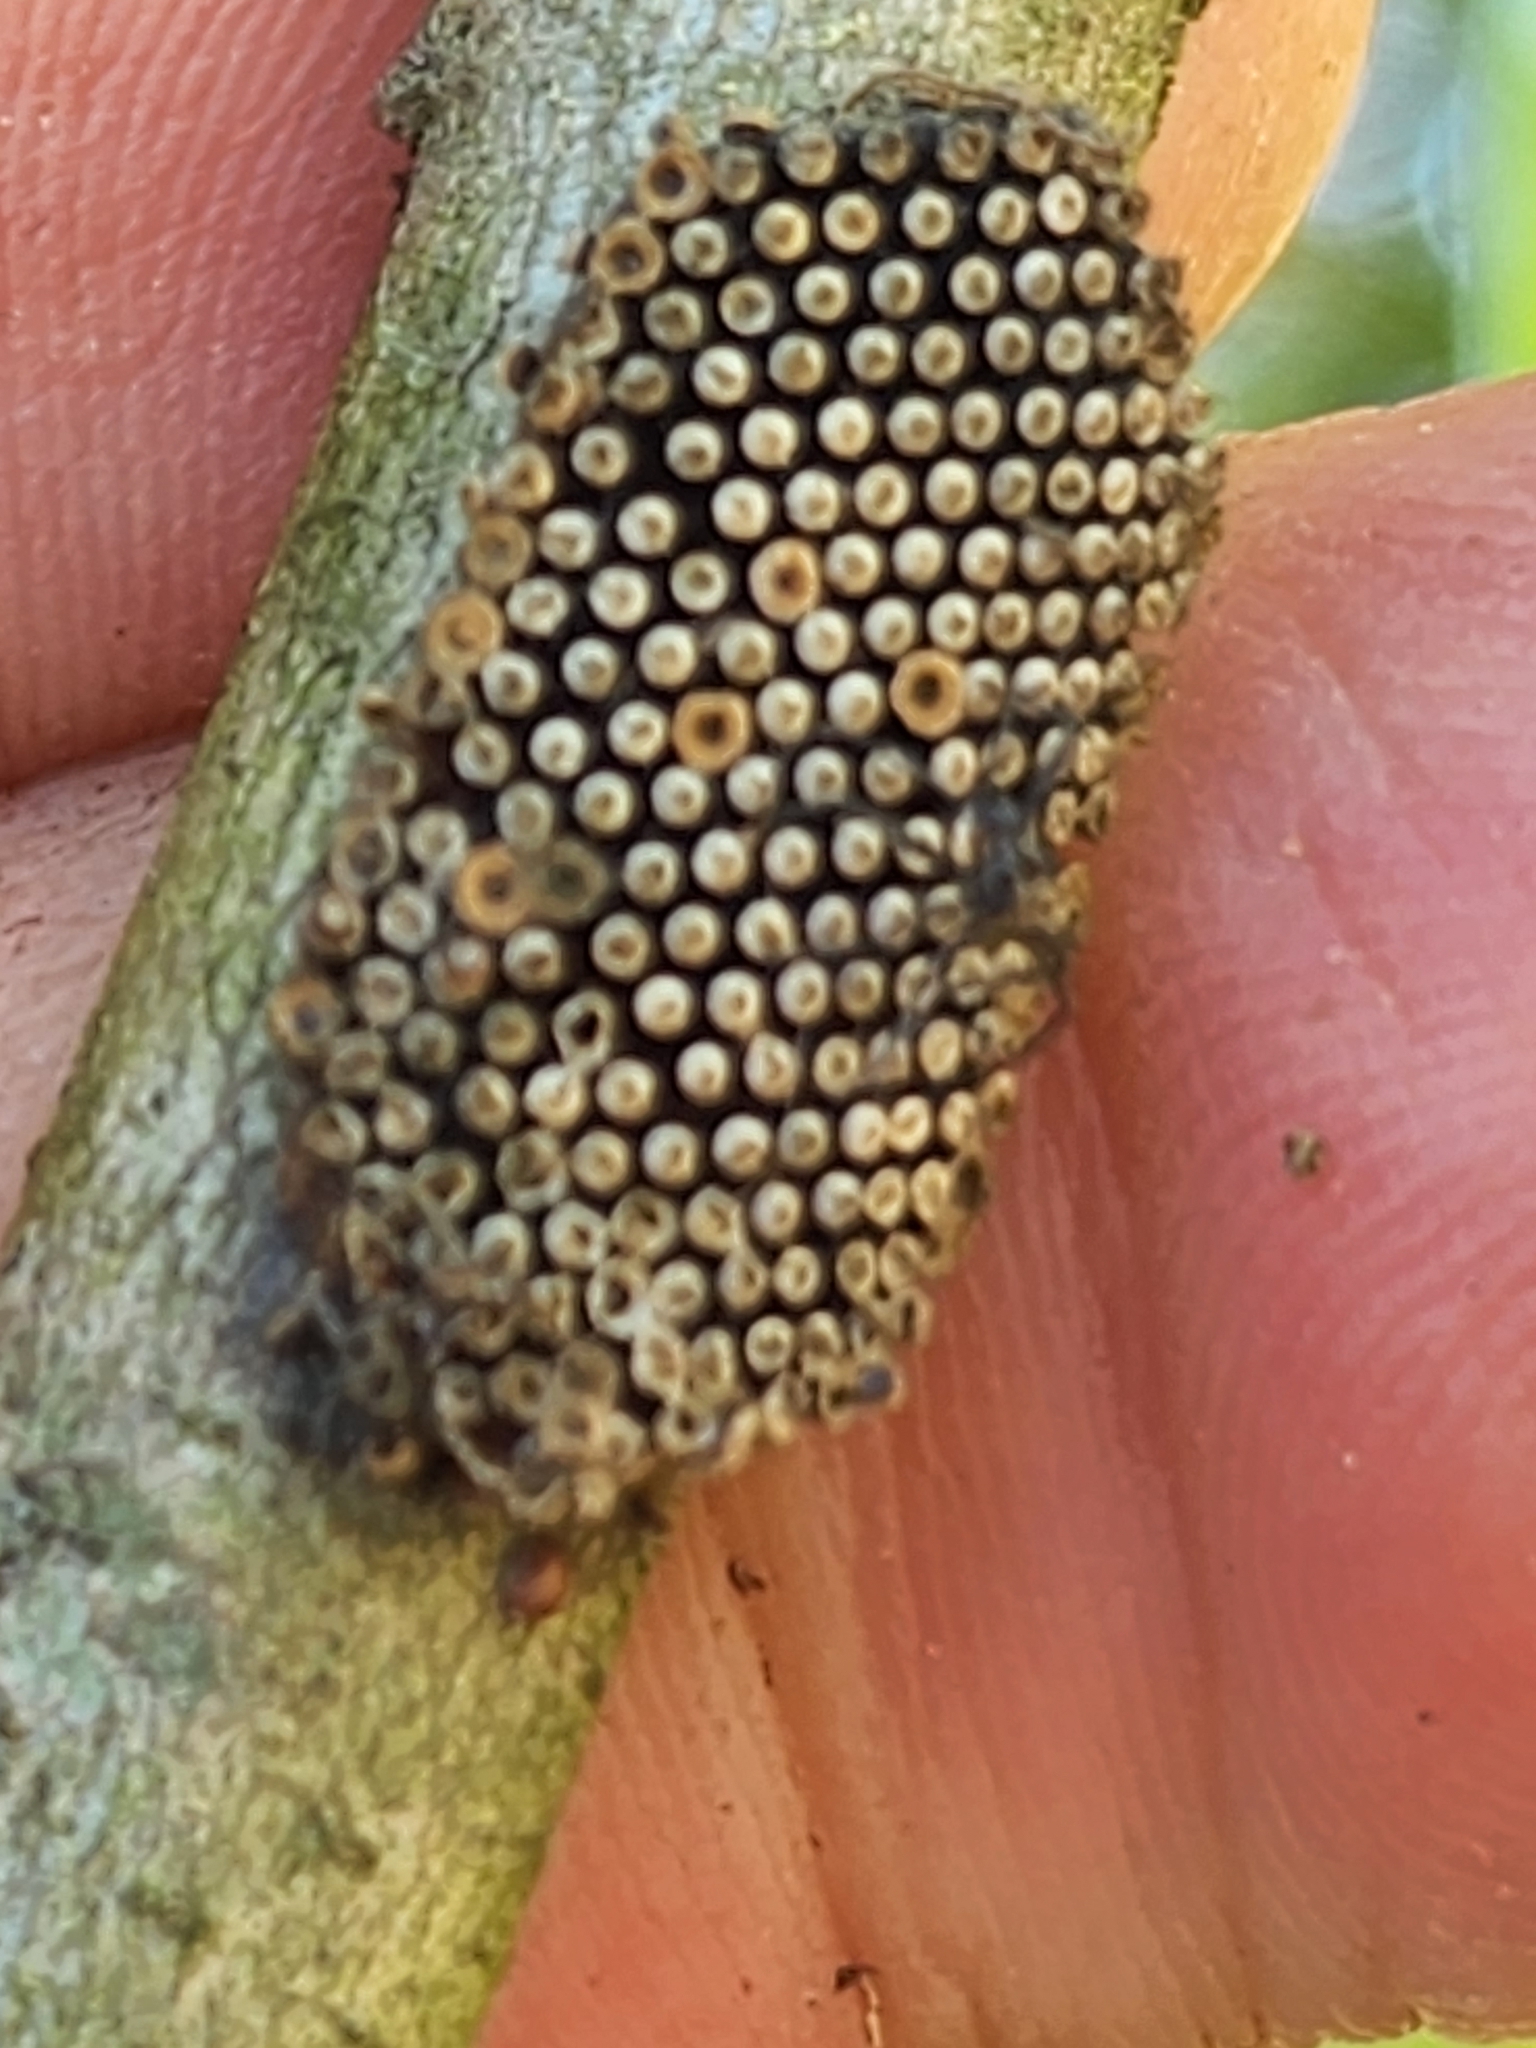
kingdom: Animalia
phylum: Arthropoda
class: Insecta
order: Hemiptera
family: Reduviidae
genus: Arilus
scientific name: Arilus cristatus
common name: North american wheel bug
